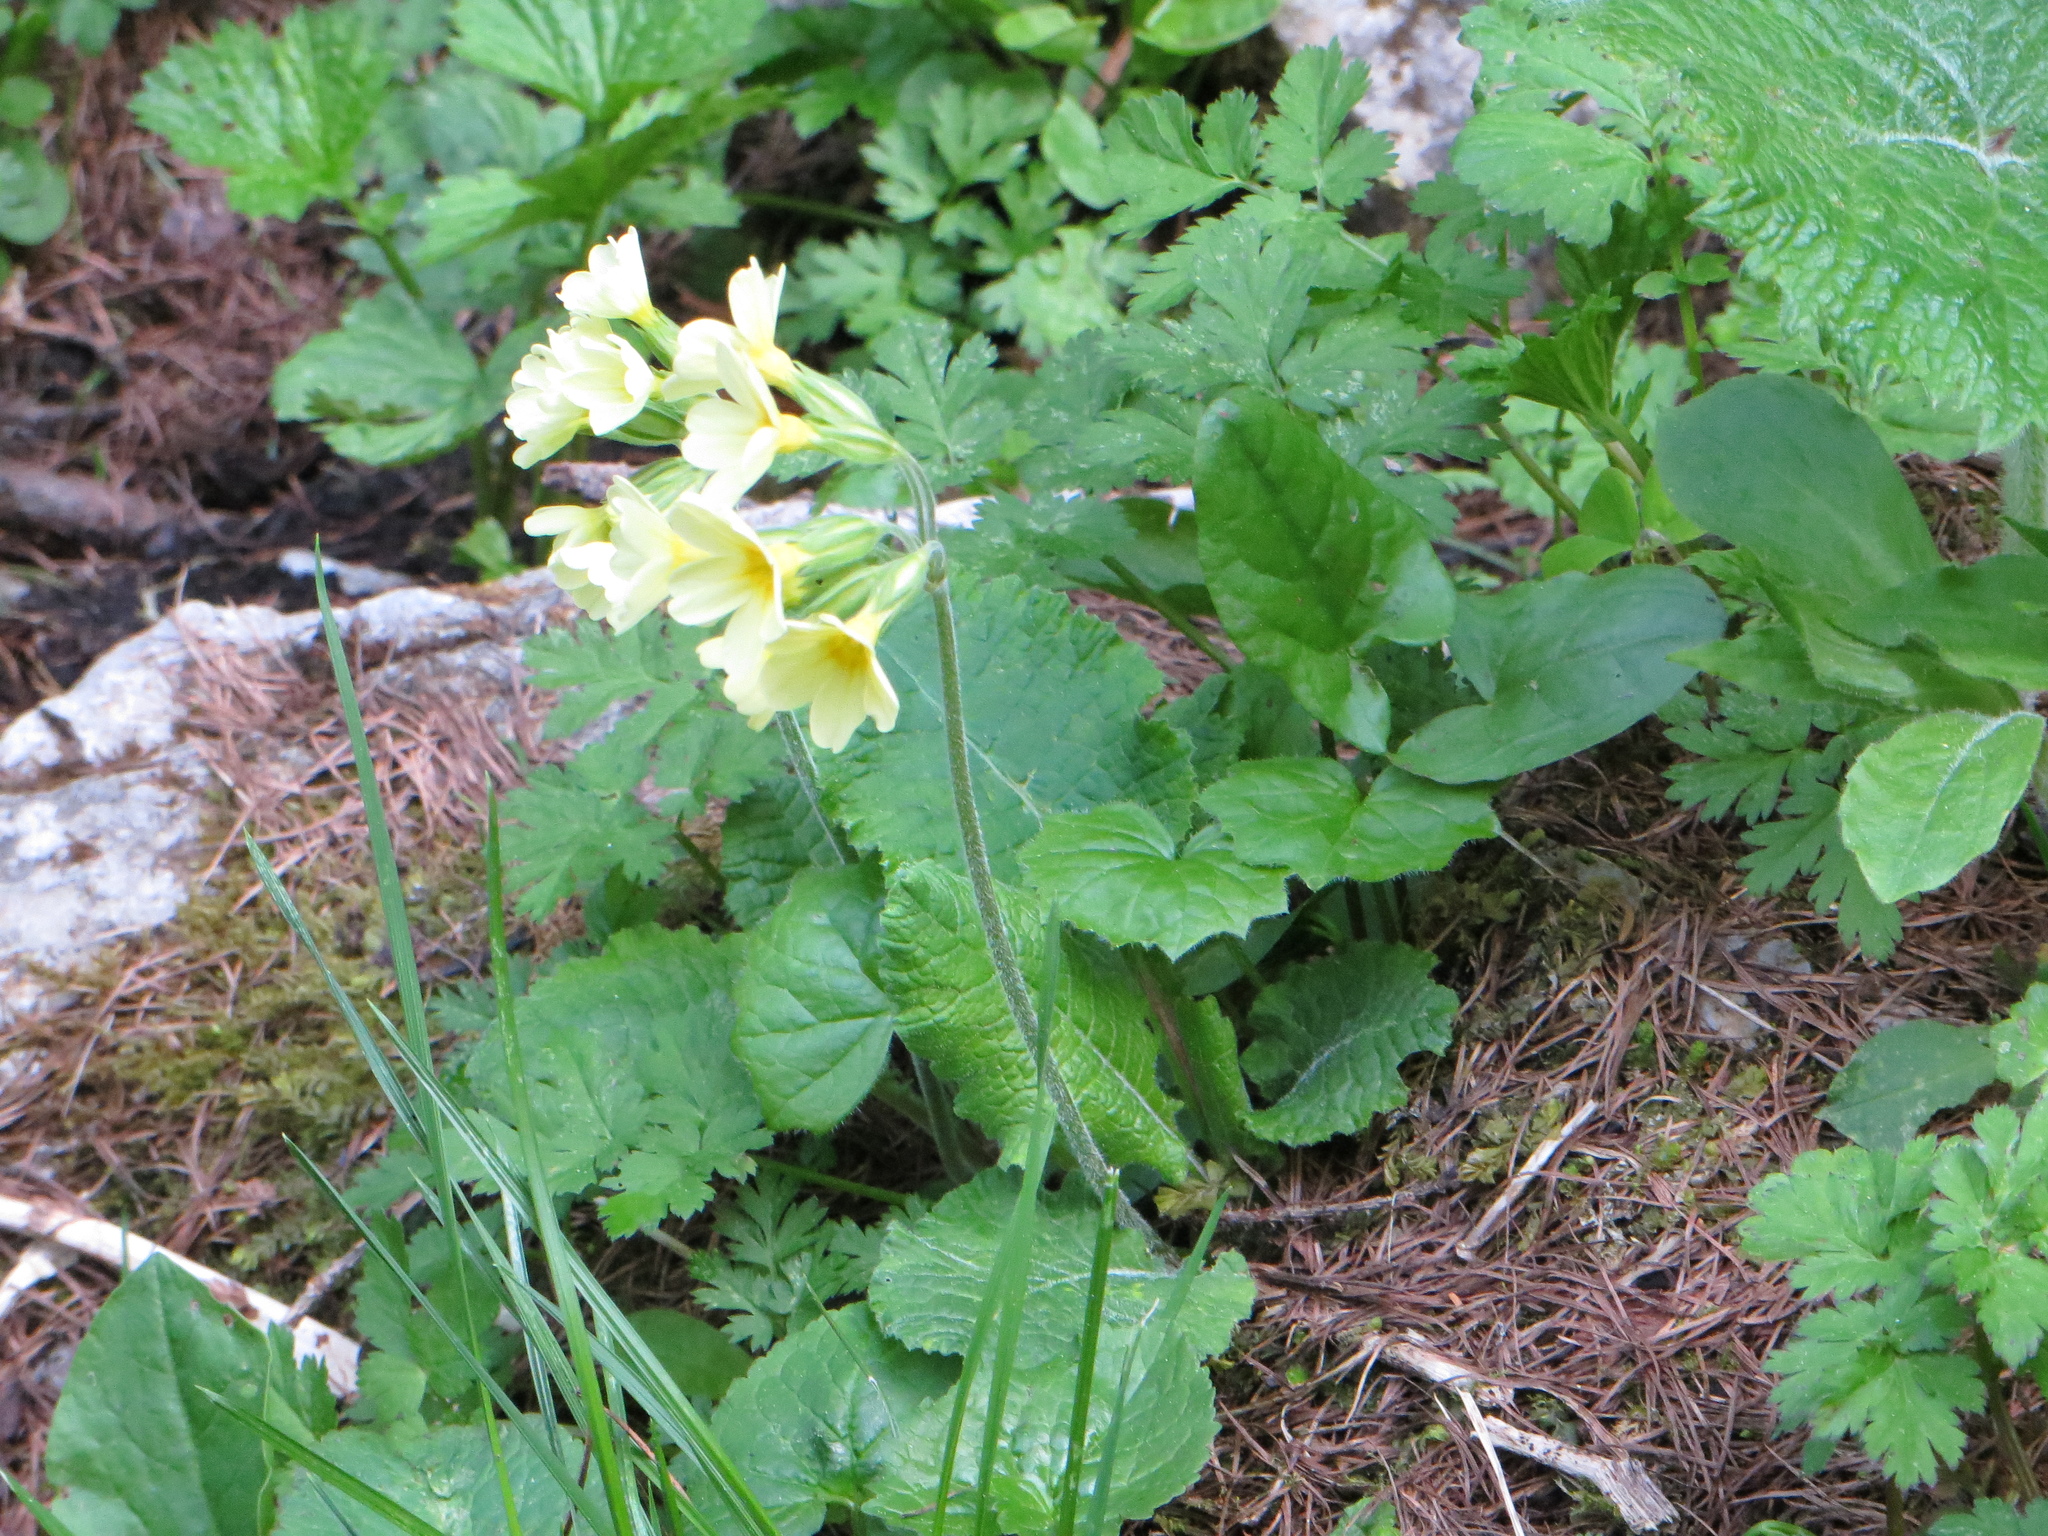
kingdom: Plantae
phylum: Tracheophyta
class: Magnoliopsida
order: Ericales
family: Primulaceae
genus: Primula
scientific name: Primula elatior
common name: Oxlip
